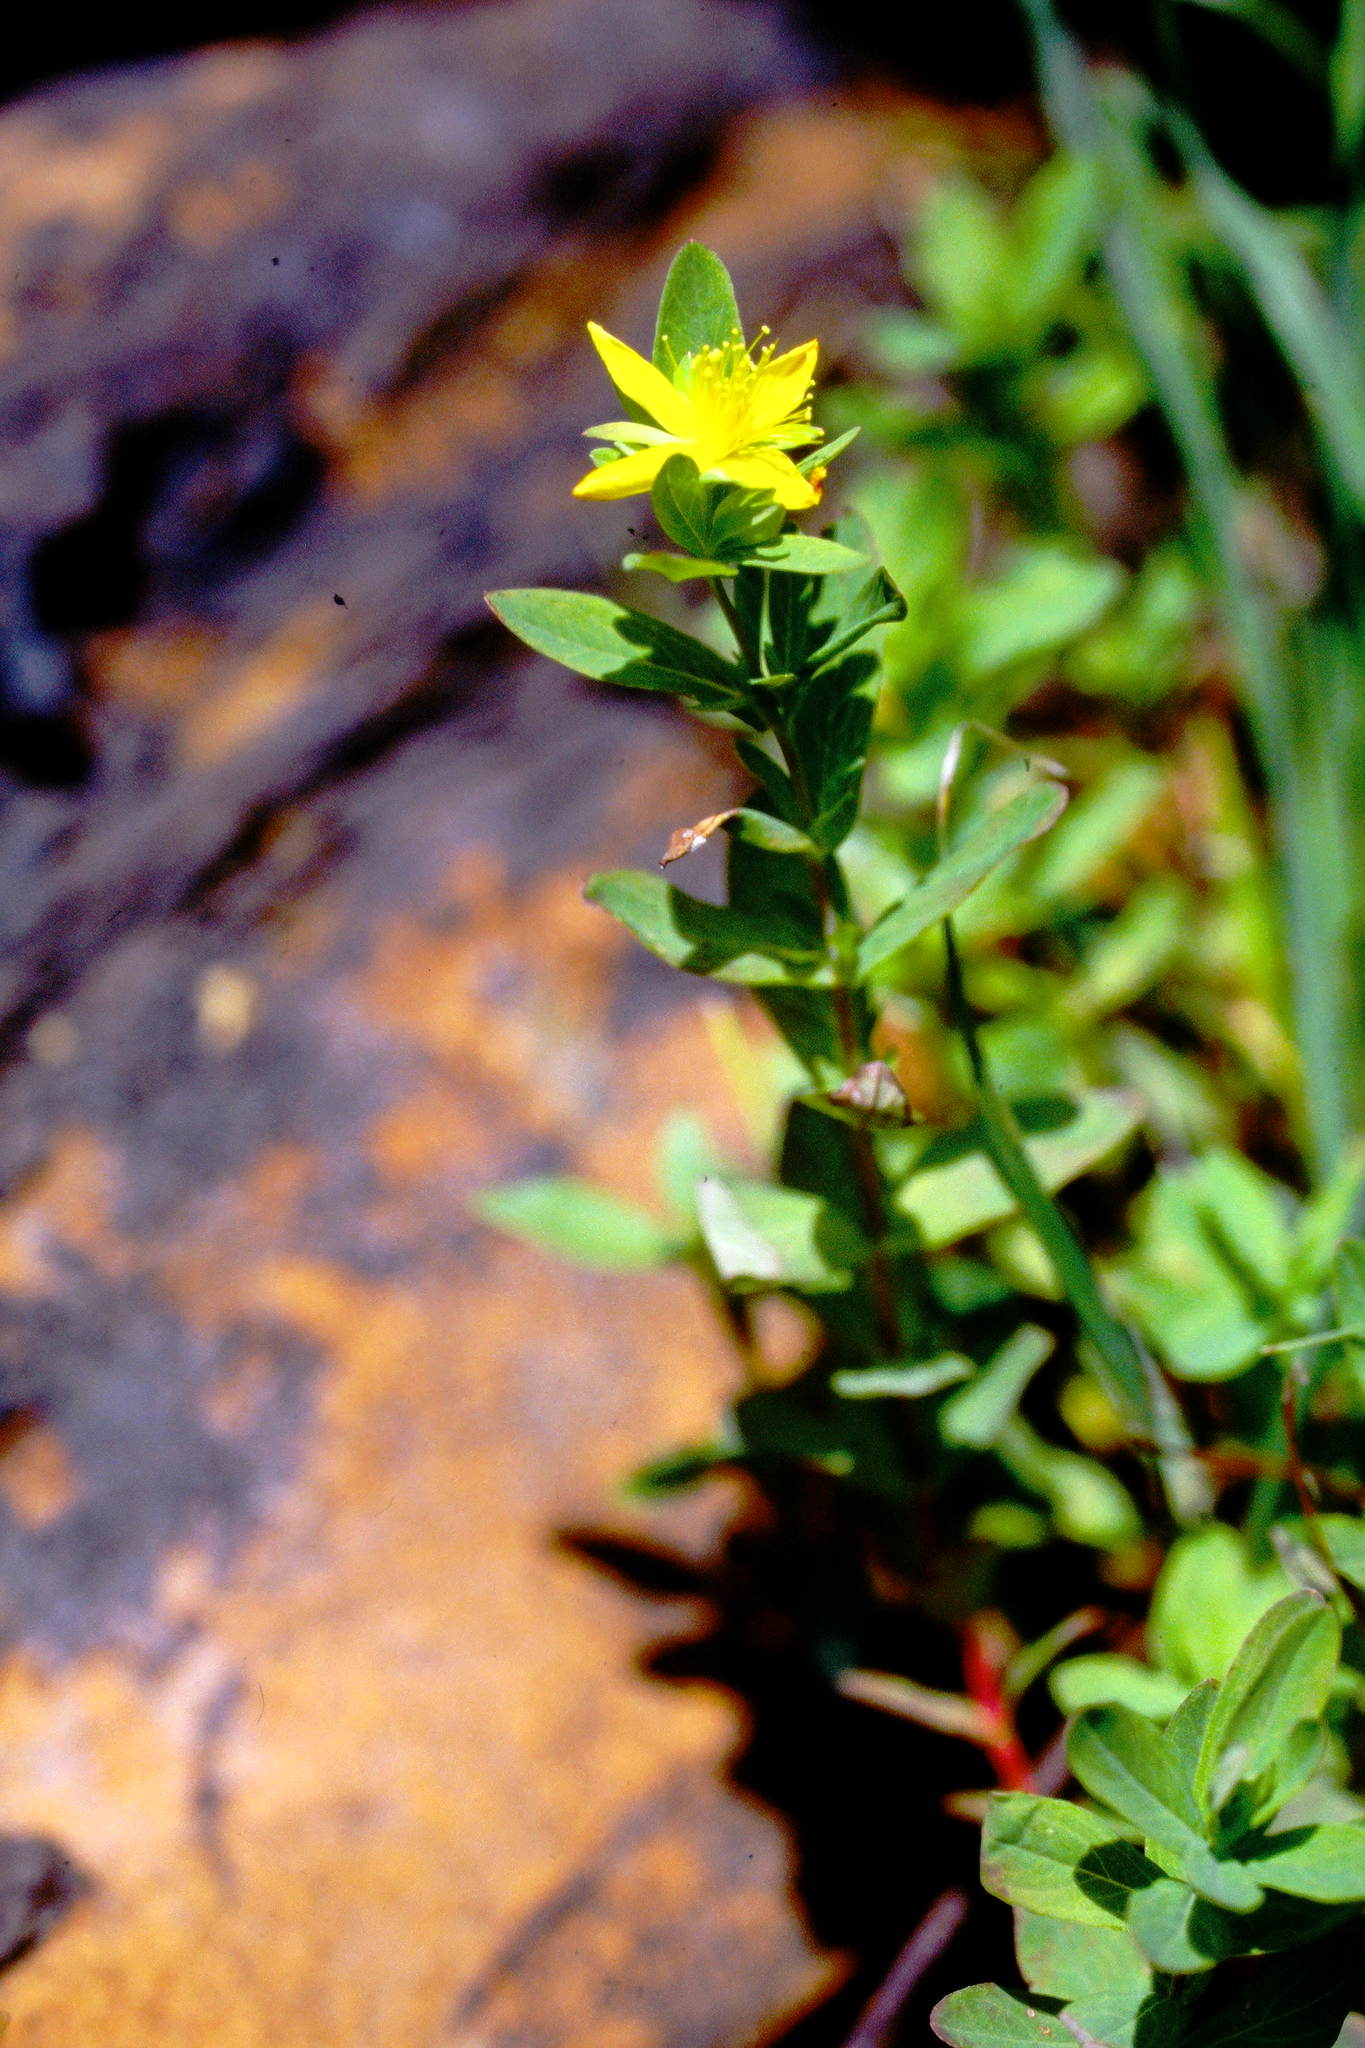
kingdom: Plantae
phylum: Tracheophyta
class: Magnoliopsida
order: Malpighiales
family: Hypericaceae
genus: Hypericum
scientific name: Hypericum ellipticum
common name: Elliptic st. john's-wort
